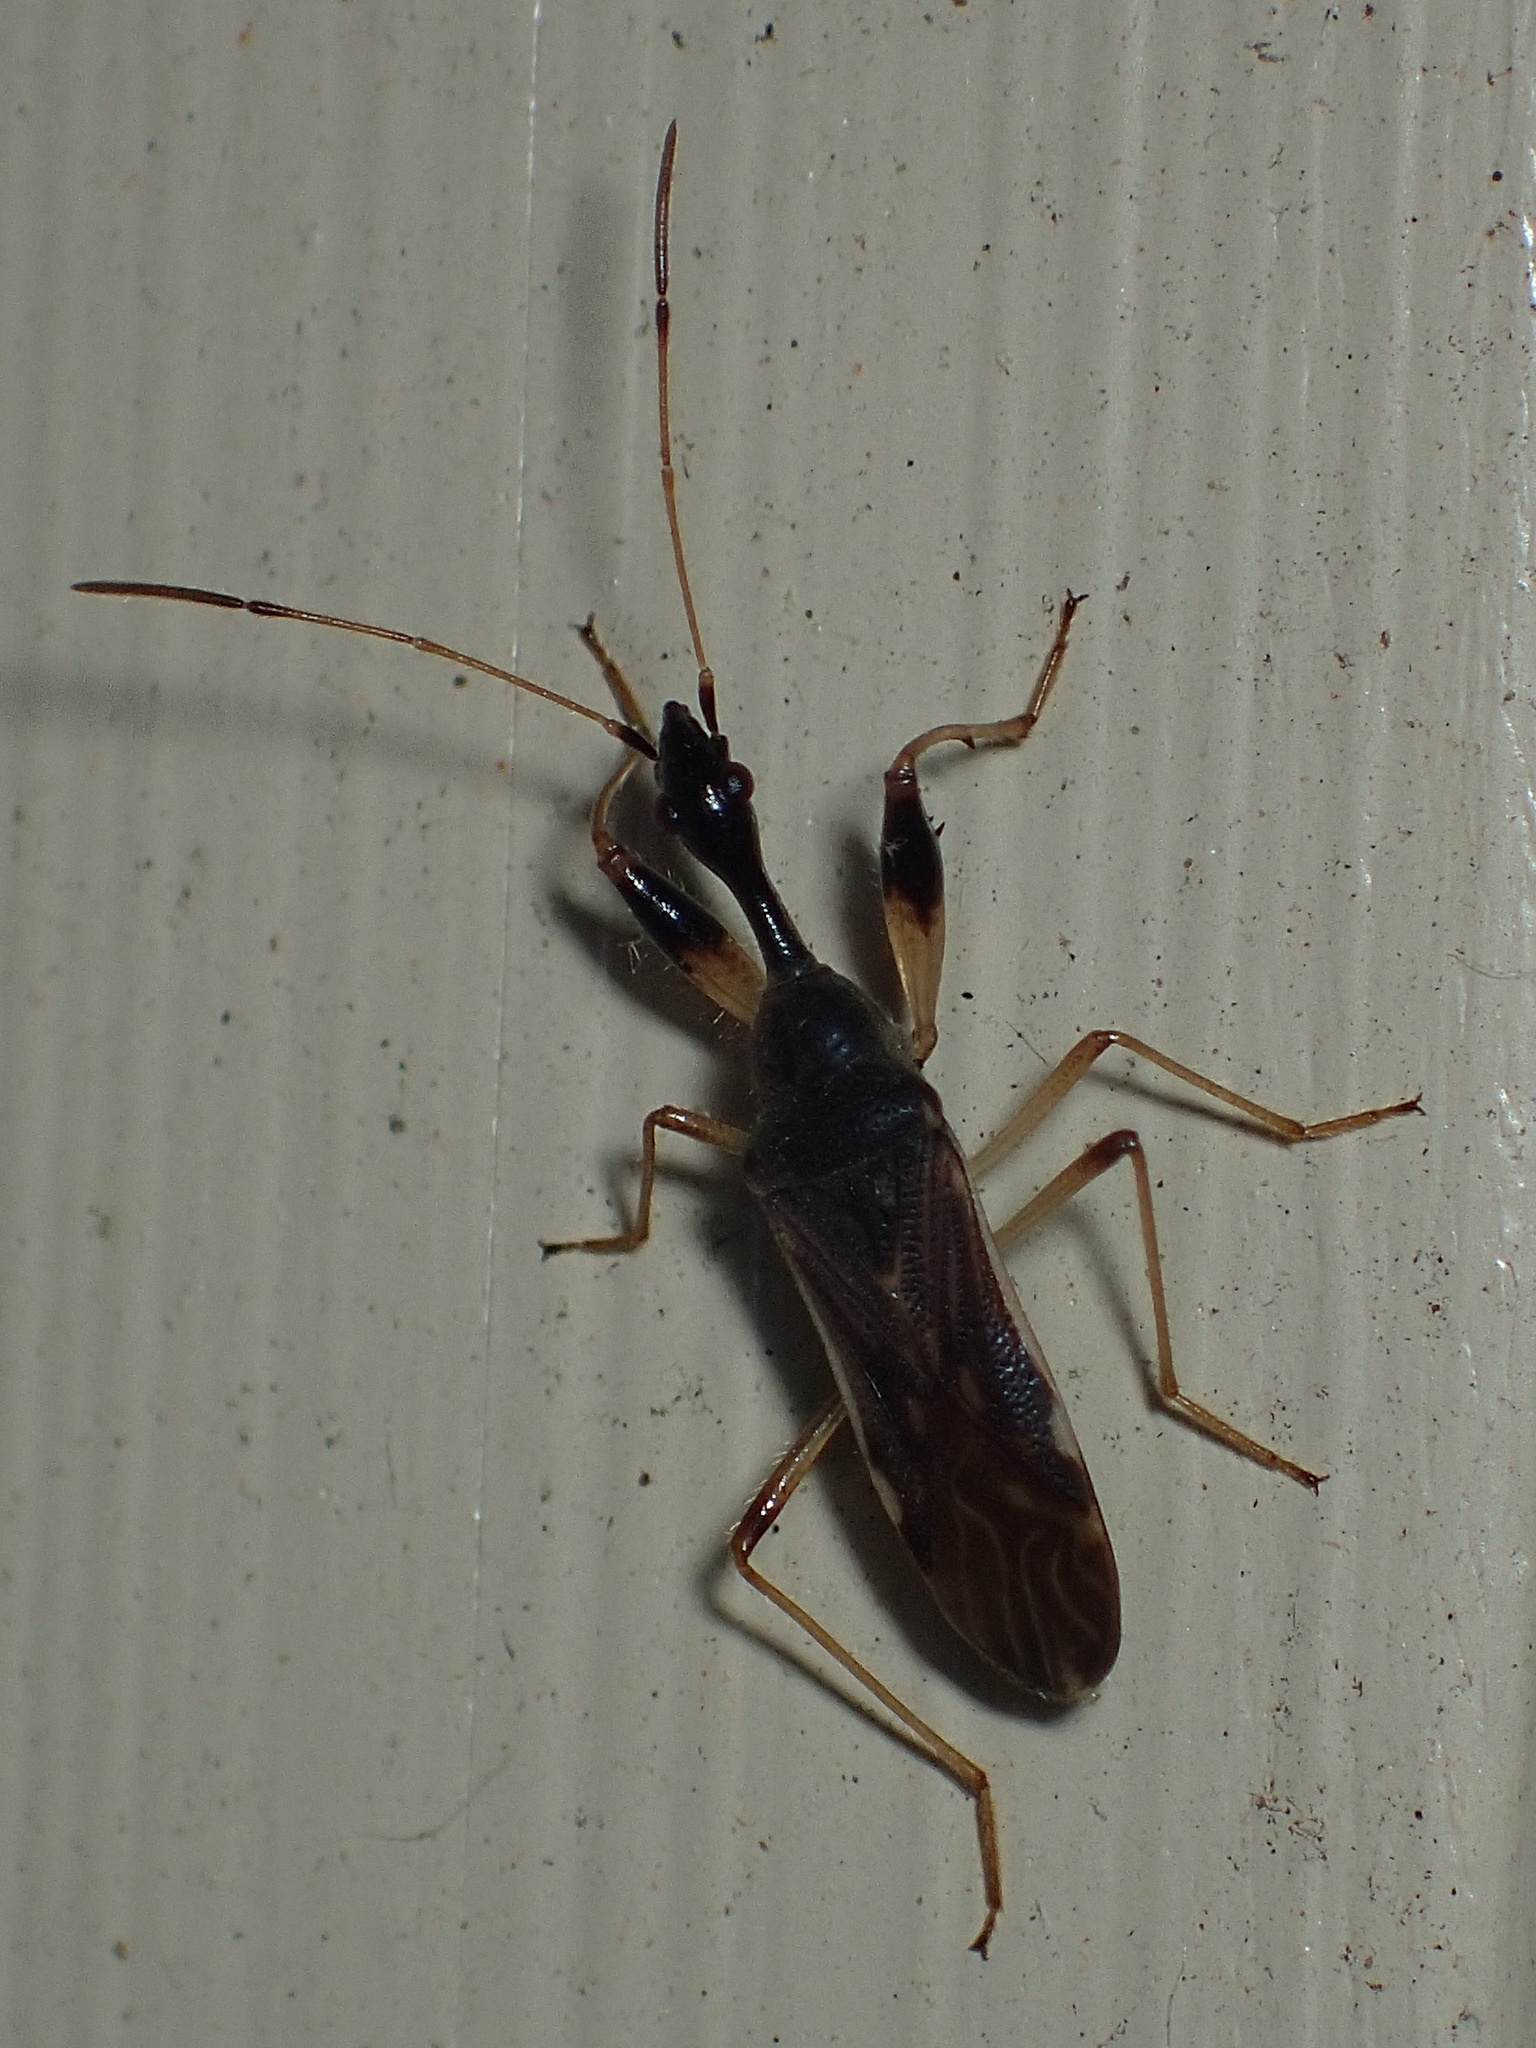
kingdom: Animalia
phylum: Arthropoda
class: Insecta
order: Hemiptera
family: Rhyparochromidae
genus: Myodocha
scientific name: Myodocha serripes
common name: Long-necked seed bug
